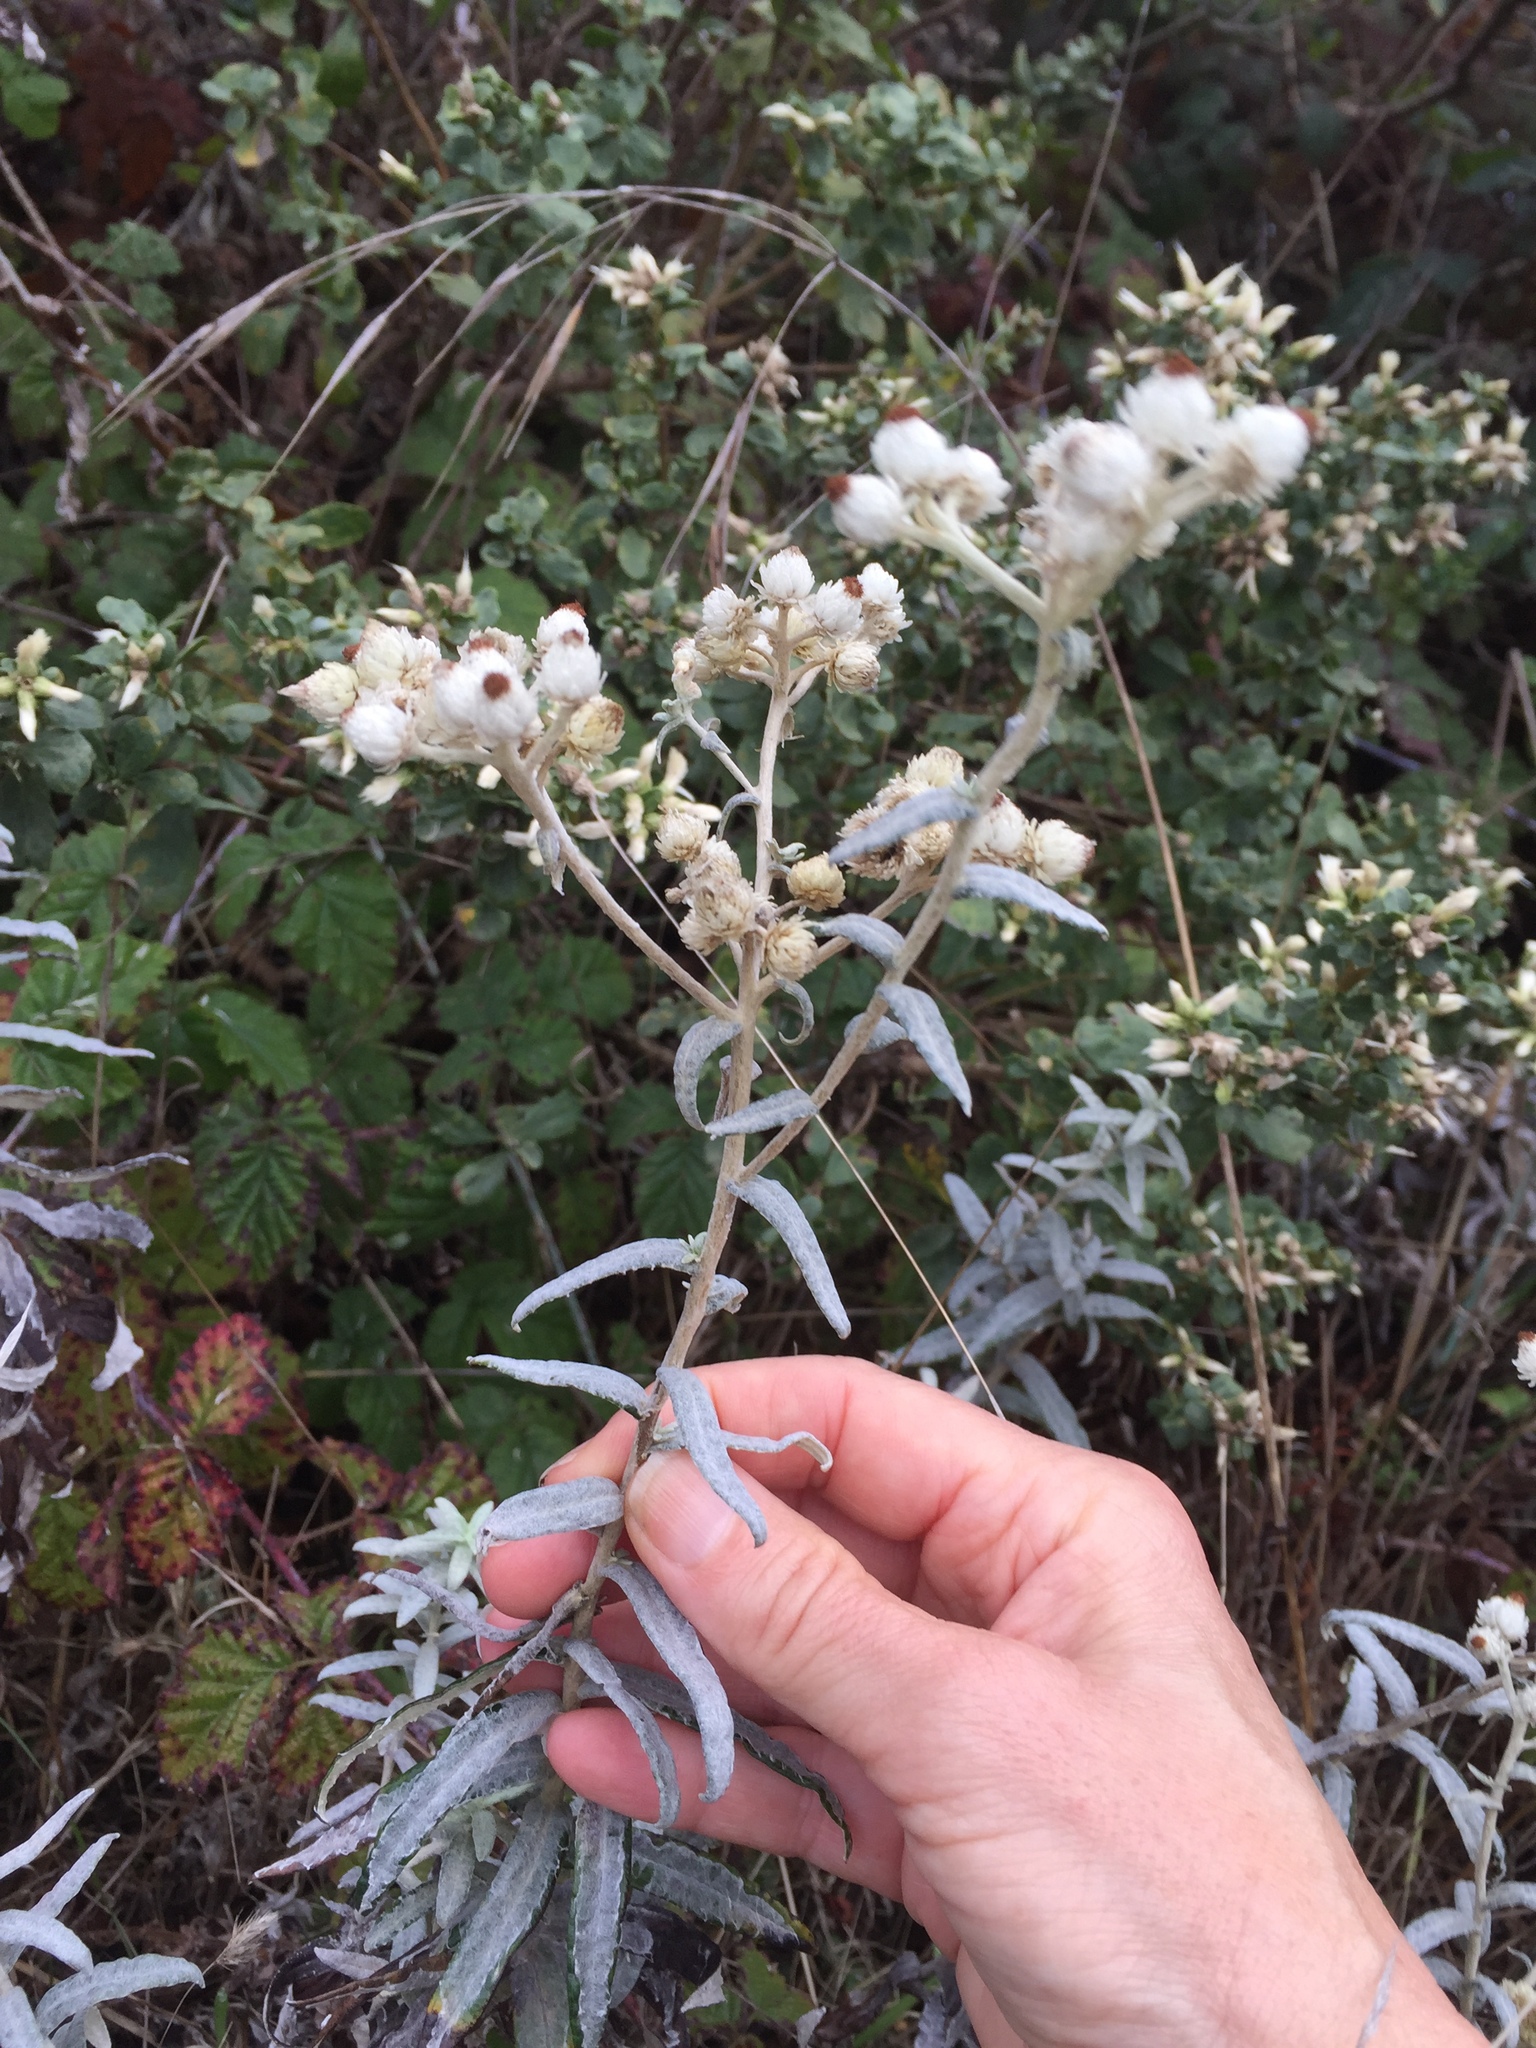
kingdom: Plantae
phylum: Tracheophyta
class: Magnoliopsida
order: Asterales
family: Asteraceae
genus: Anaphalis
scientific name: Anaphalis margaritacea
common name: Pearly everlasting
